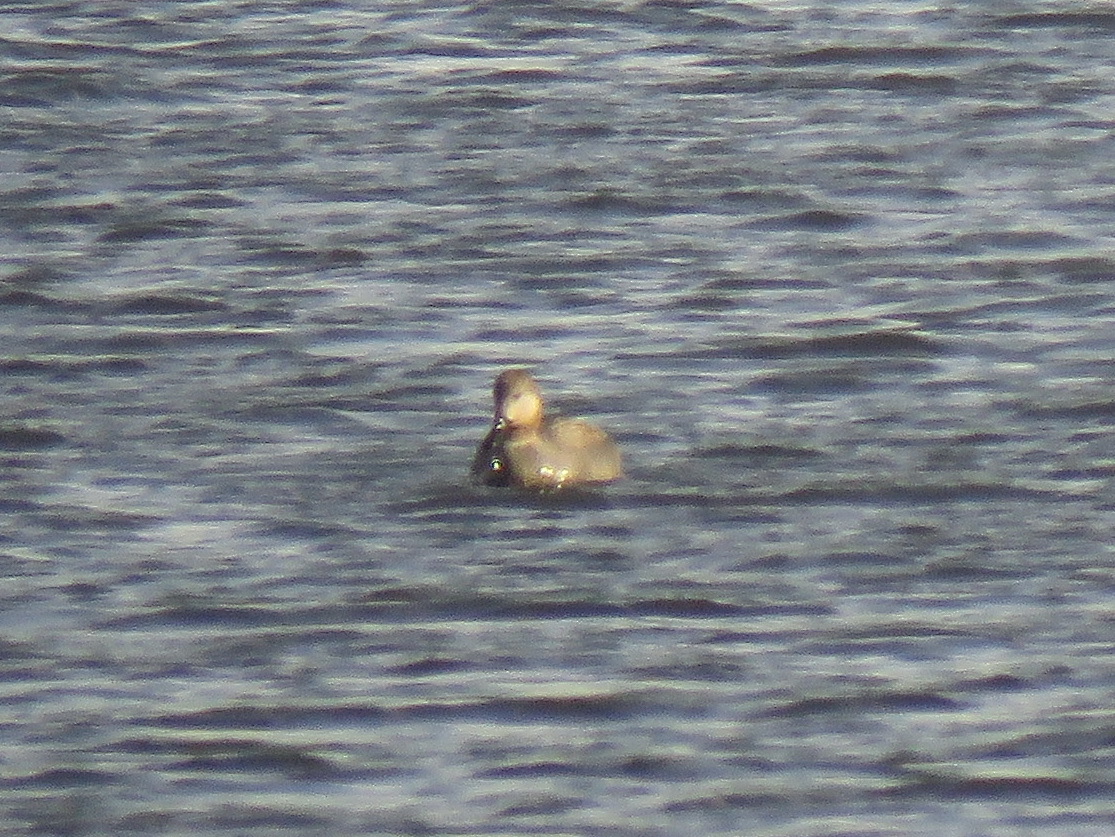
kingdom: Animalia
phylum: Chordata
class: Aves
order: Anseriformes
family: Anatidae
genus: Mareca
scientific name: Mareca strepera
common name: Gadwall
